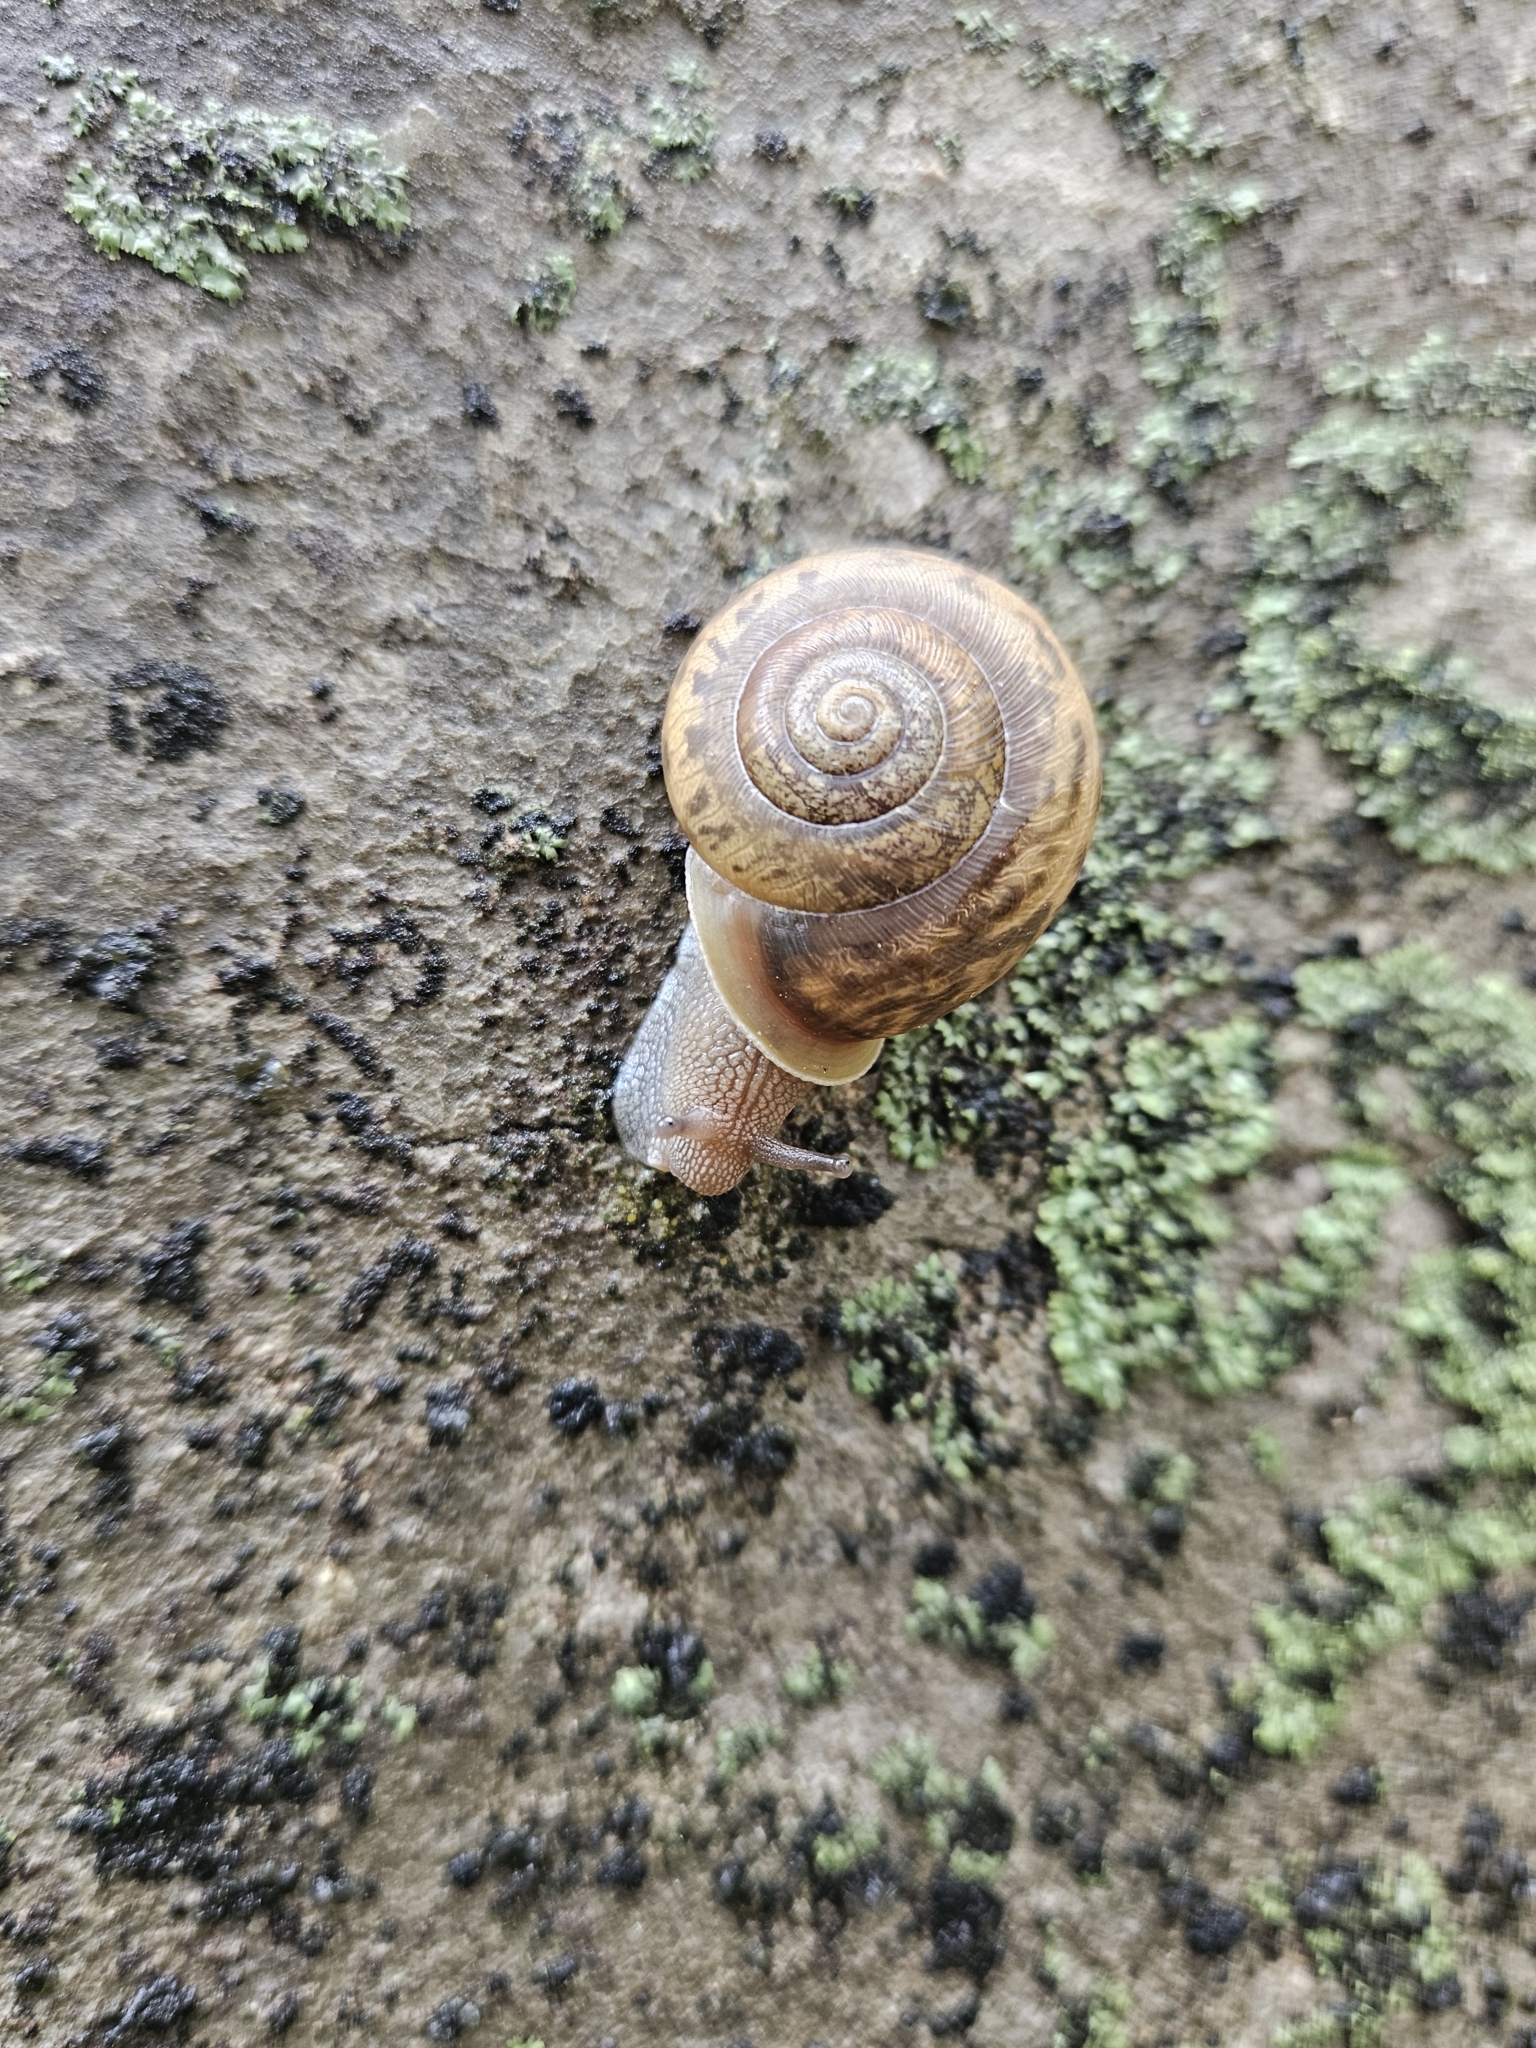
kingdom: Animalia
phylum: Mollusca
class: Gastropoda
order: Stylommatophora
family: Polygyridae
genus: Mesodon
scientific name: Mesodon thyroidus
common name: White-lip globe
